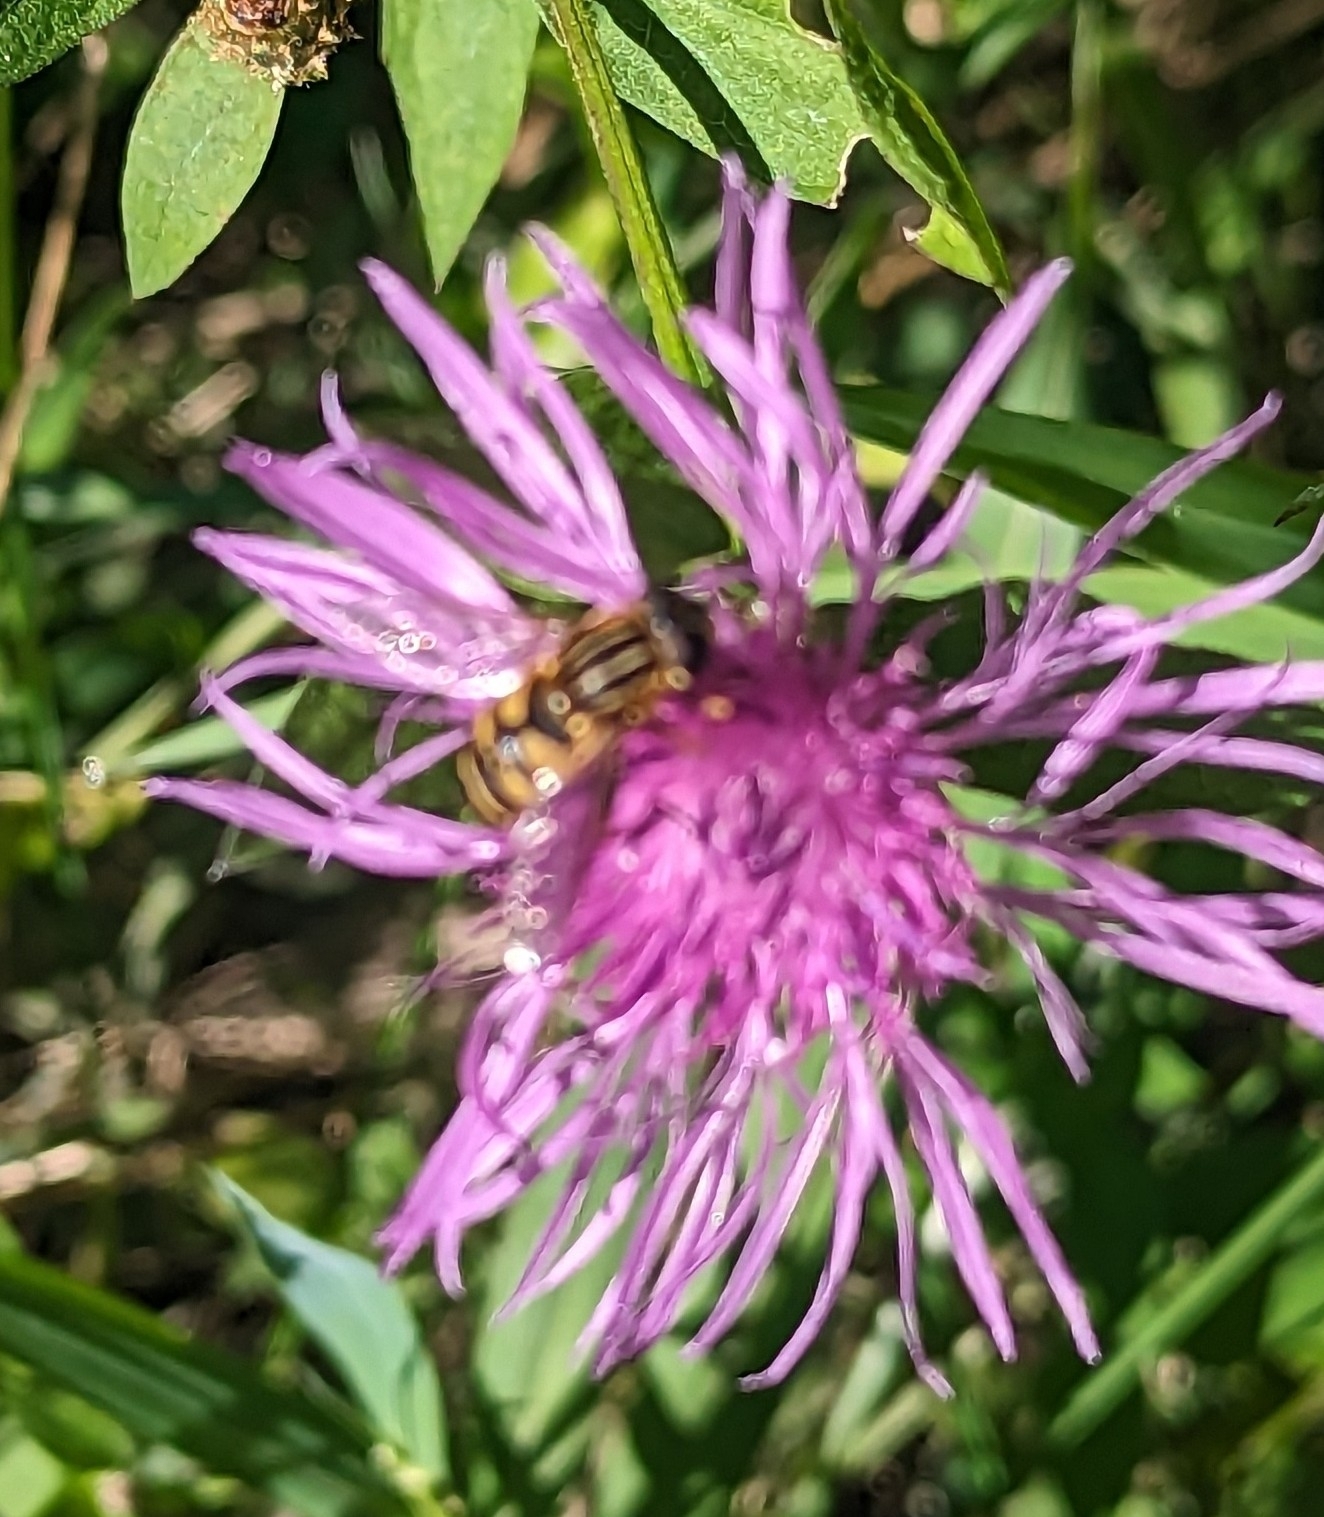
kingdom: Animalia
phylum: Arthropoda
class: Insecta
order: Diptera
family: Syrphidae
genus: Helophilus
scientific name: Helophilus fasciatus
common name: Narrow-headed marsh fly
